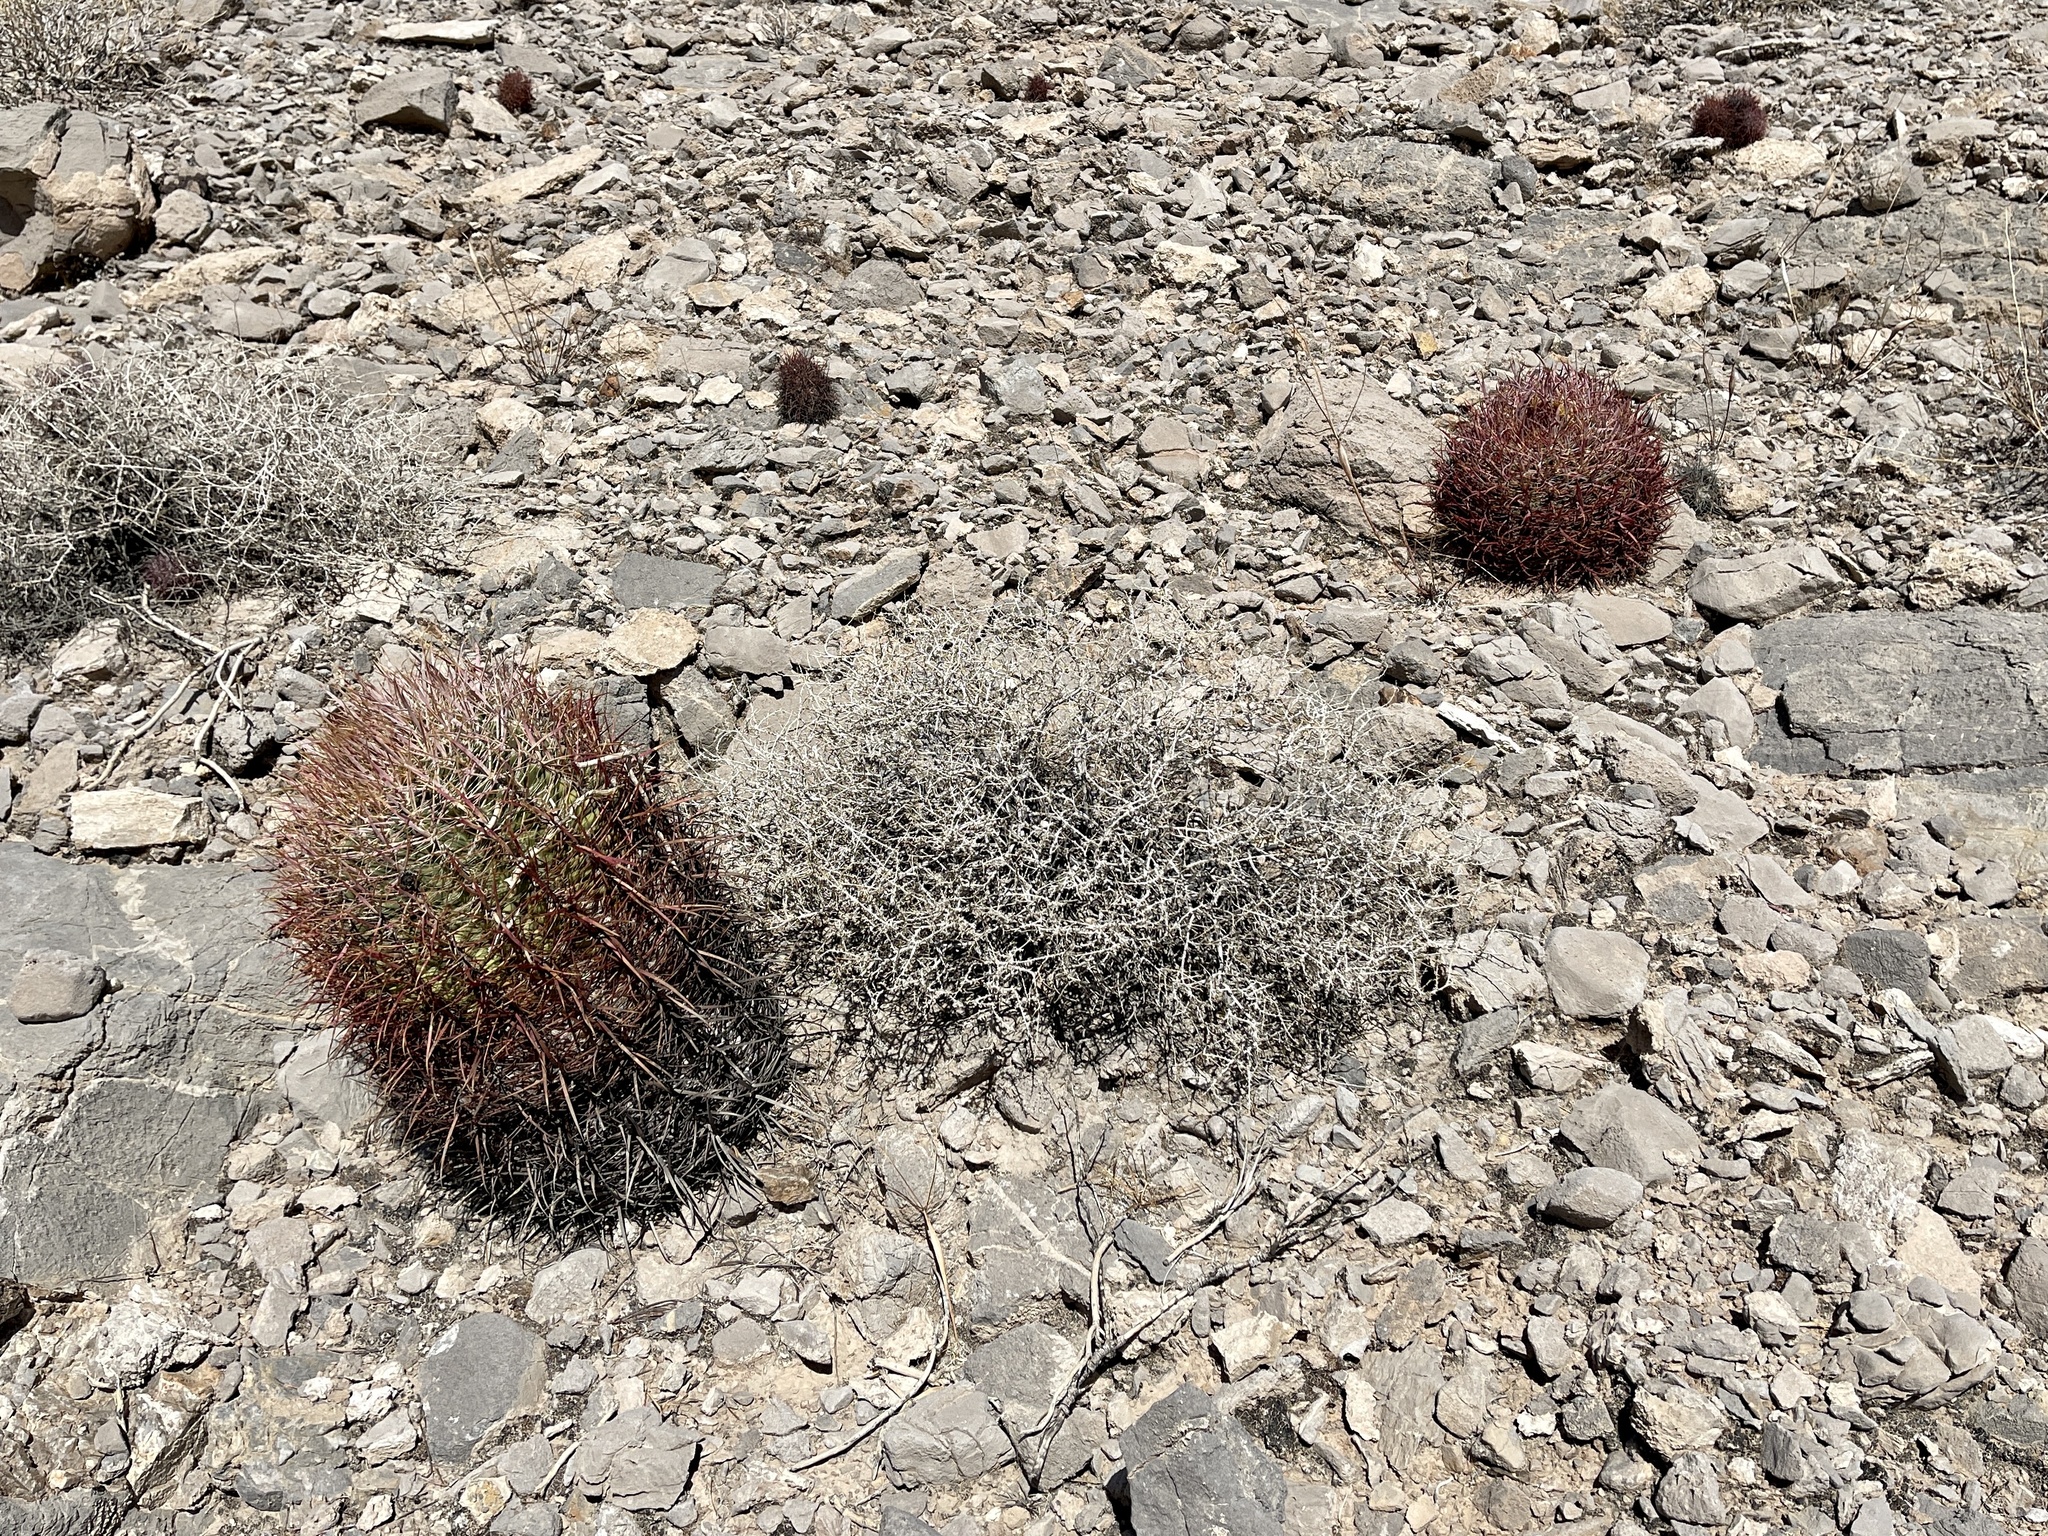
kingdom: Plantae
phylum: Tracheophyta
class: Magnoliopsida
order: Caryophyllales
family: Cactaceae
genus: Ferocactus
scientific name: Ferocactus cylindraceus
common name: California barrel cactus
